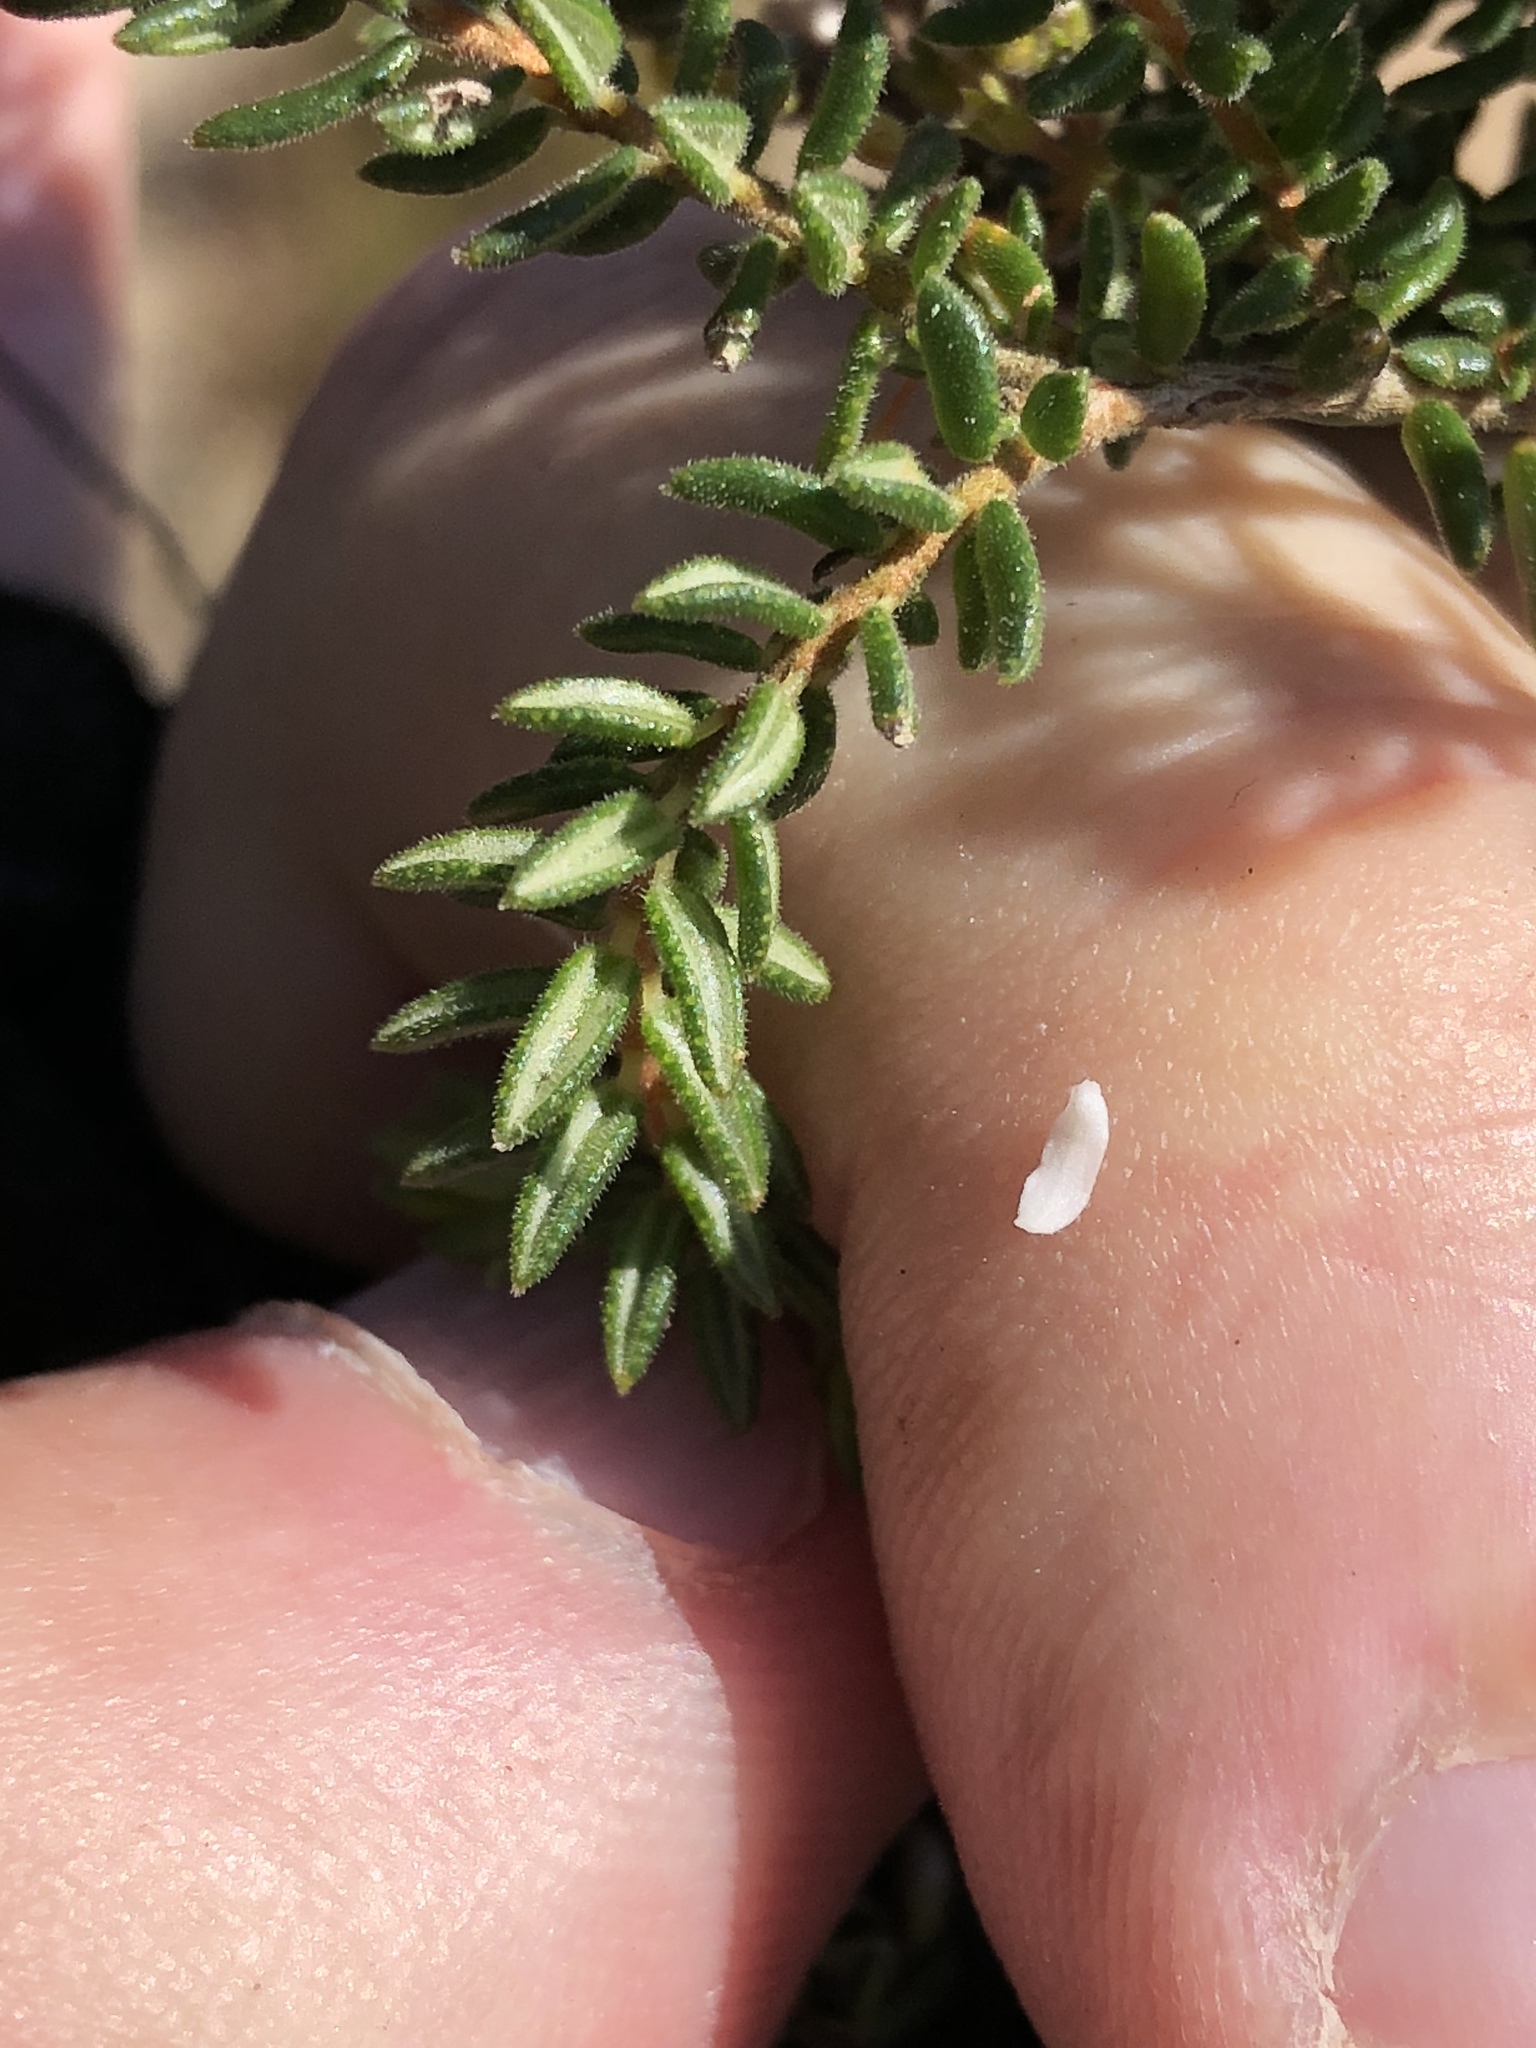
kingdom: Plantae
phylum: Tracheophyta
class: Magnoliopsida
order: Sapindales
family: Rutaceae
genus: Agathosma
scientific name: Agathosma mundtii
